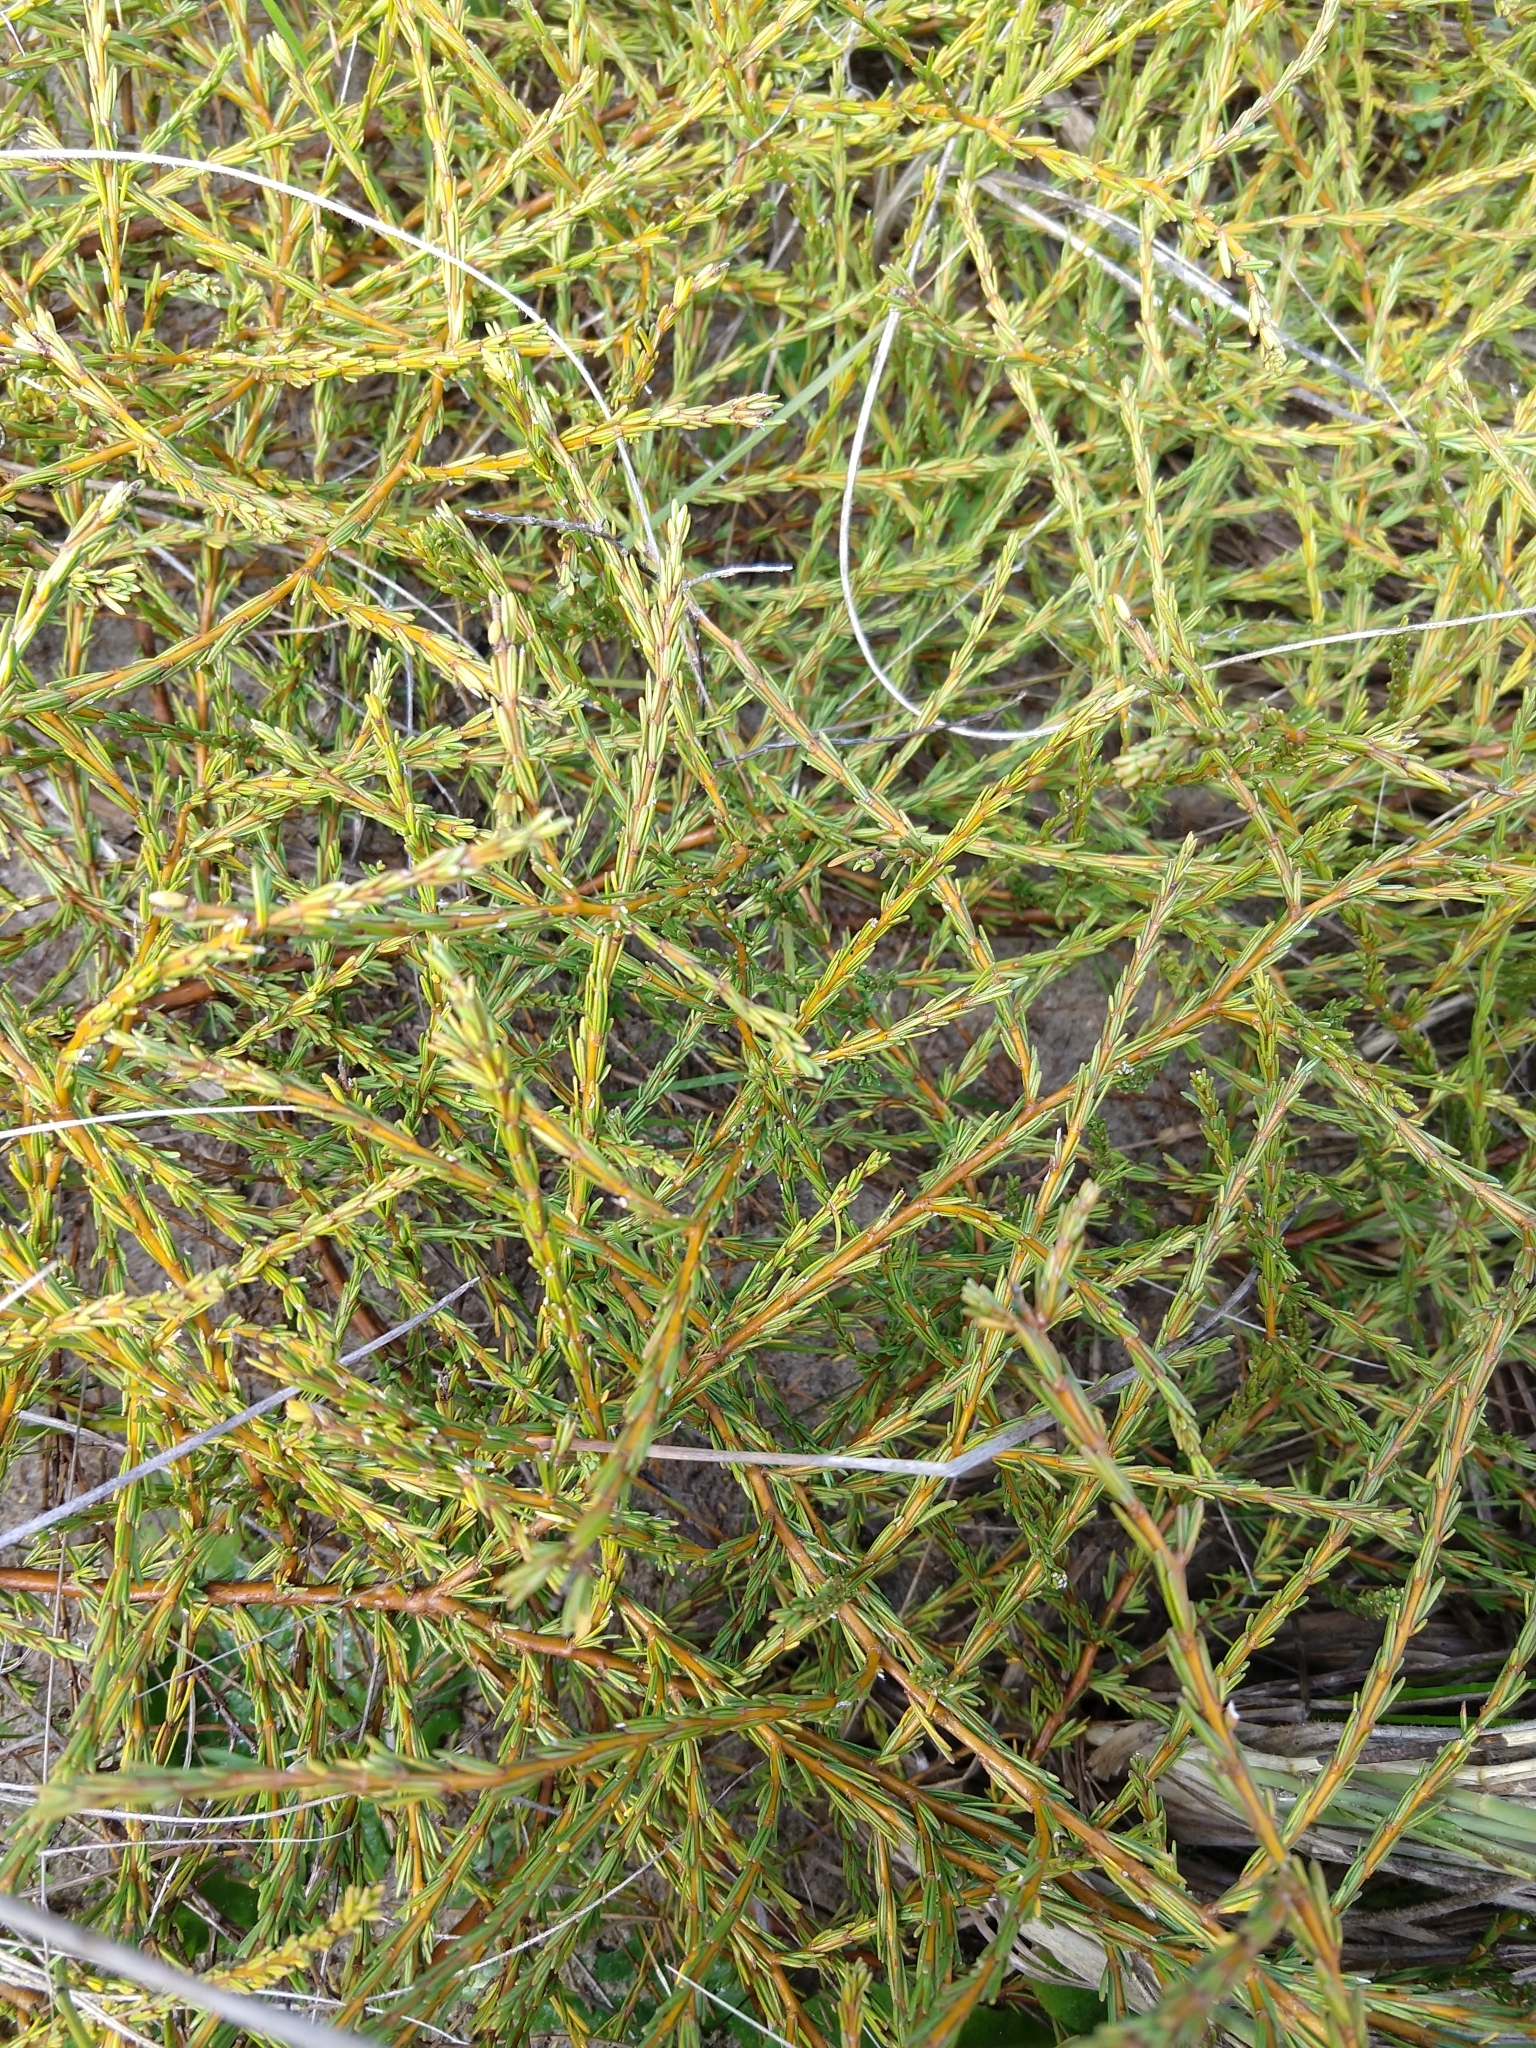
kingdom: Plantae
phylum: Tracheophyta
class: Magnoliopsida
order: Gentianales
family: Rubiaceae
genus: Coprosma
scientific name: Coprosma acerosa
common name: Sand coprosma
